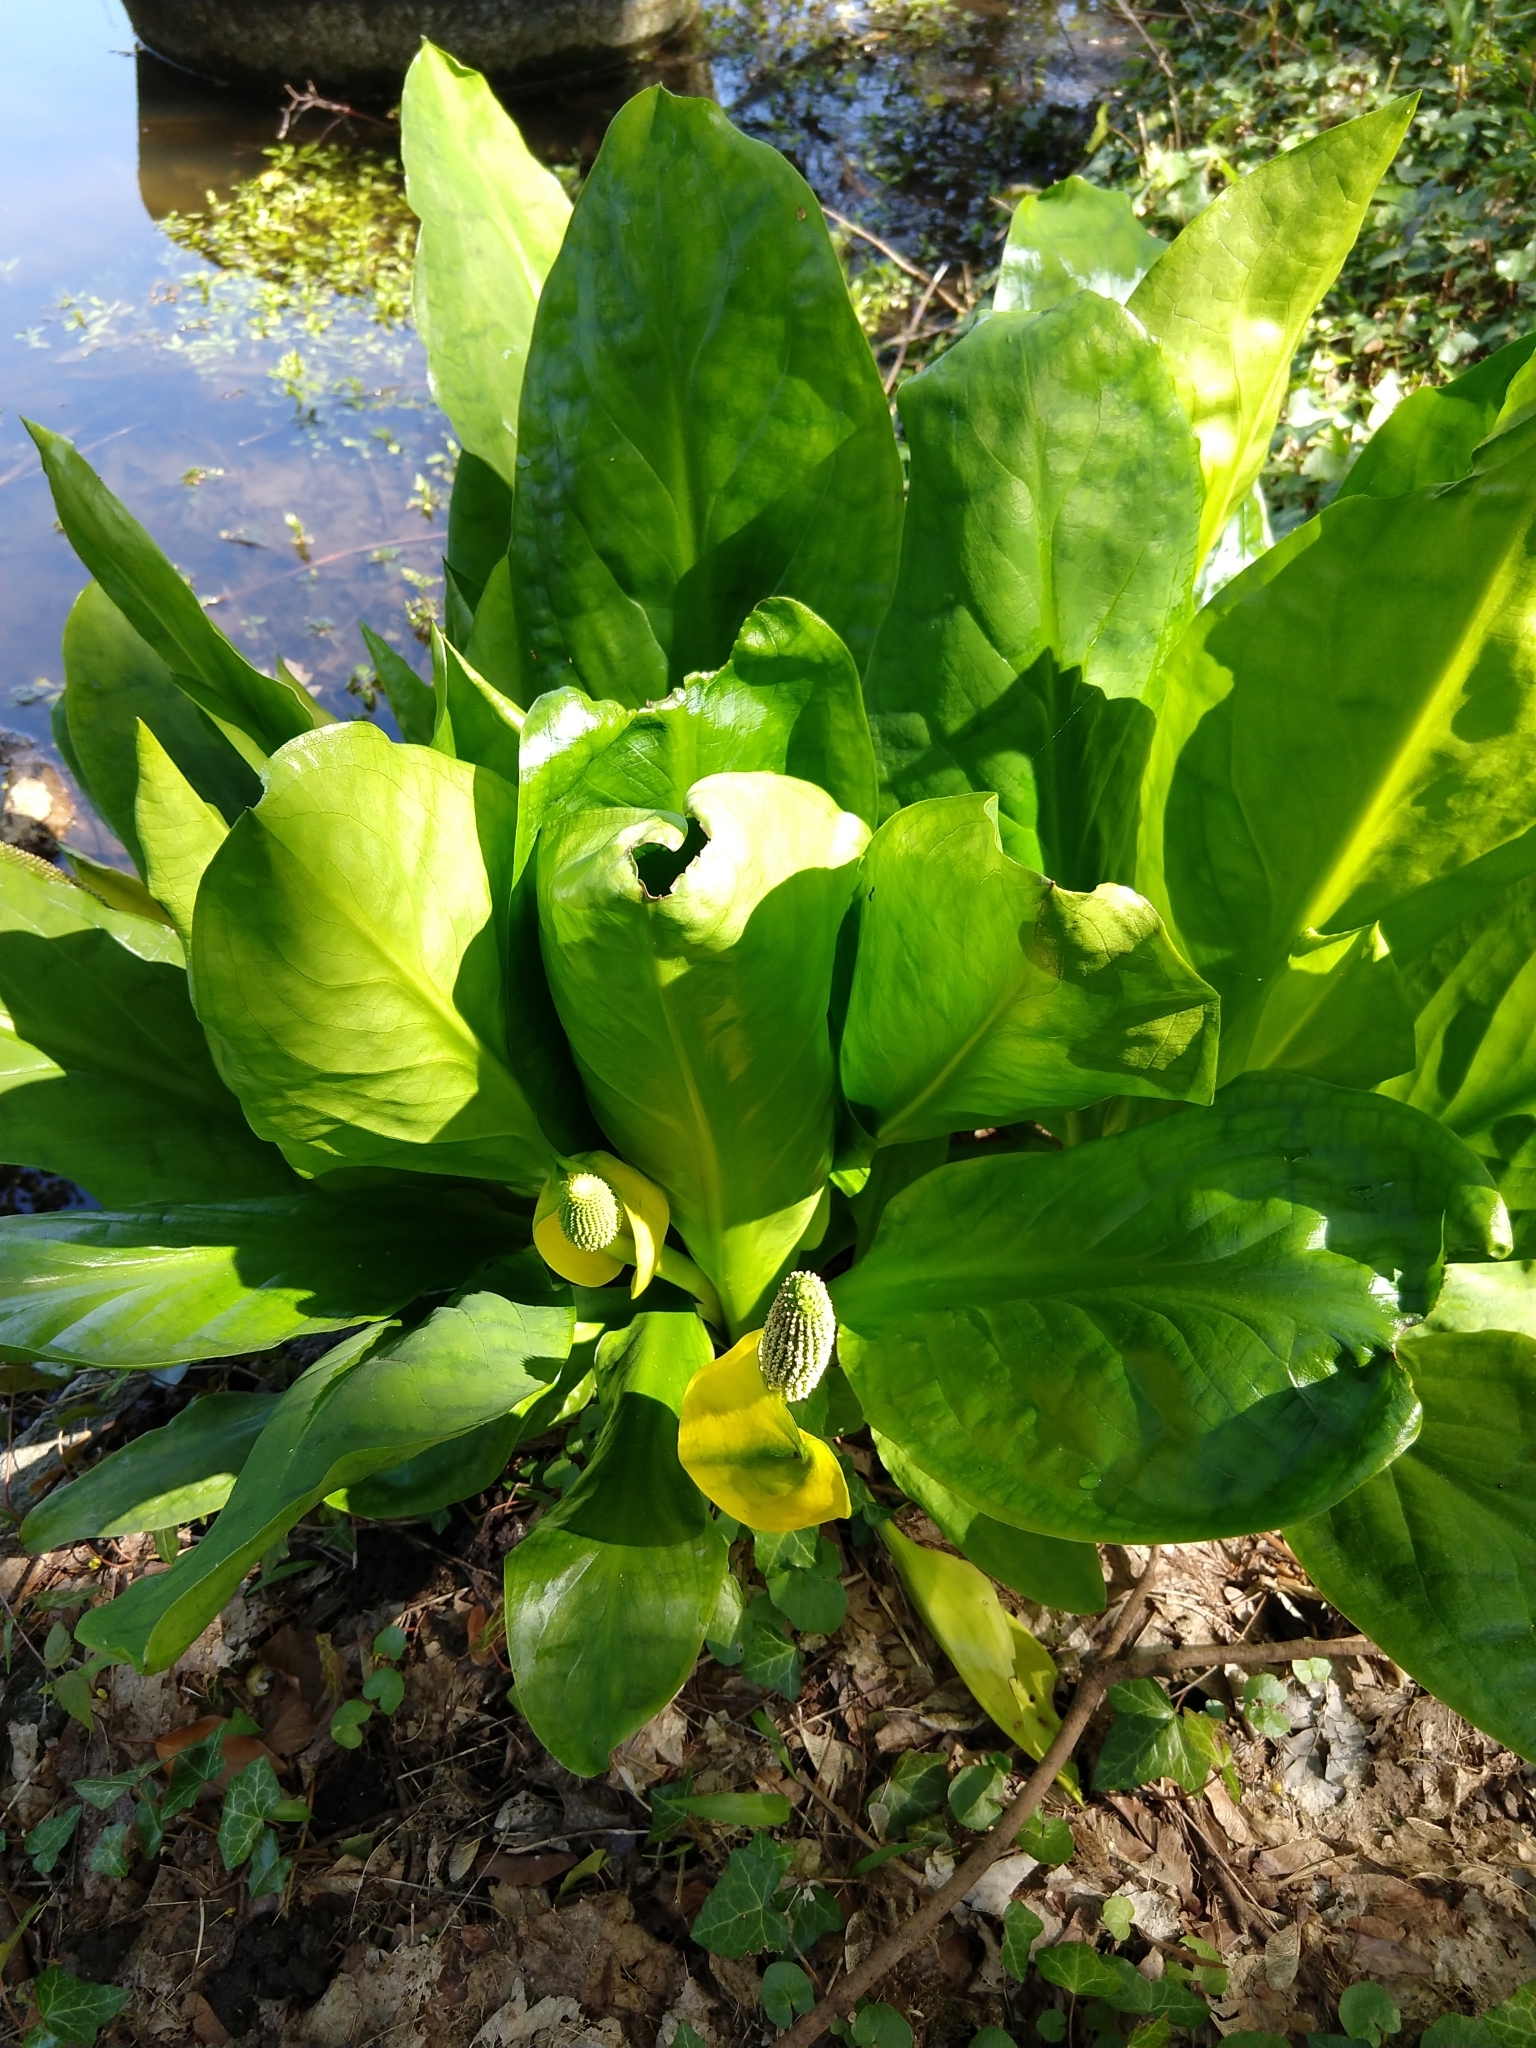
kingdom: Plantae
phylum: Tracheophyta
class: Liliopsida
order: Alismatales
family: Araceae
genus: Lysichiton
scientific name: Lysichiton americanus
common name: American skunk cabbage
